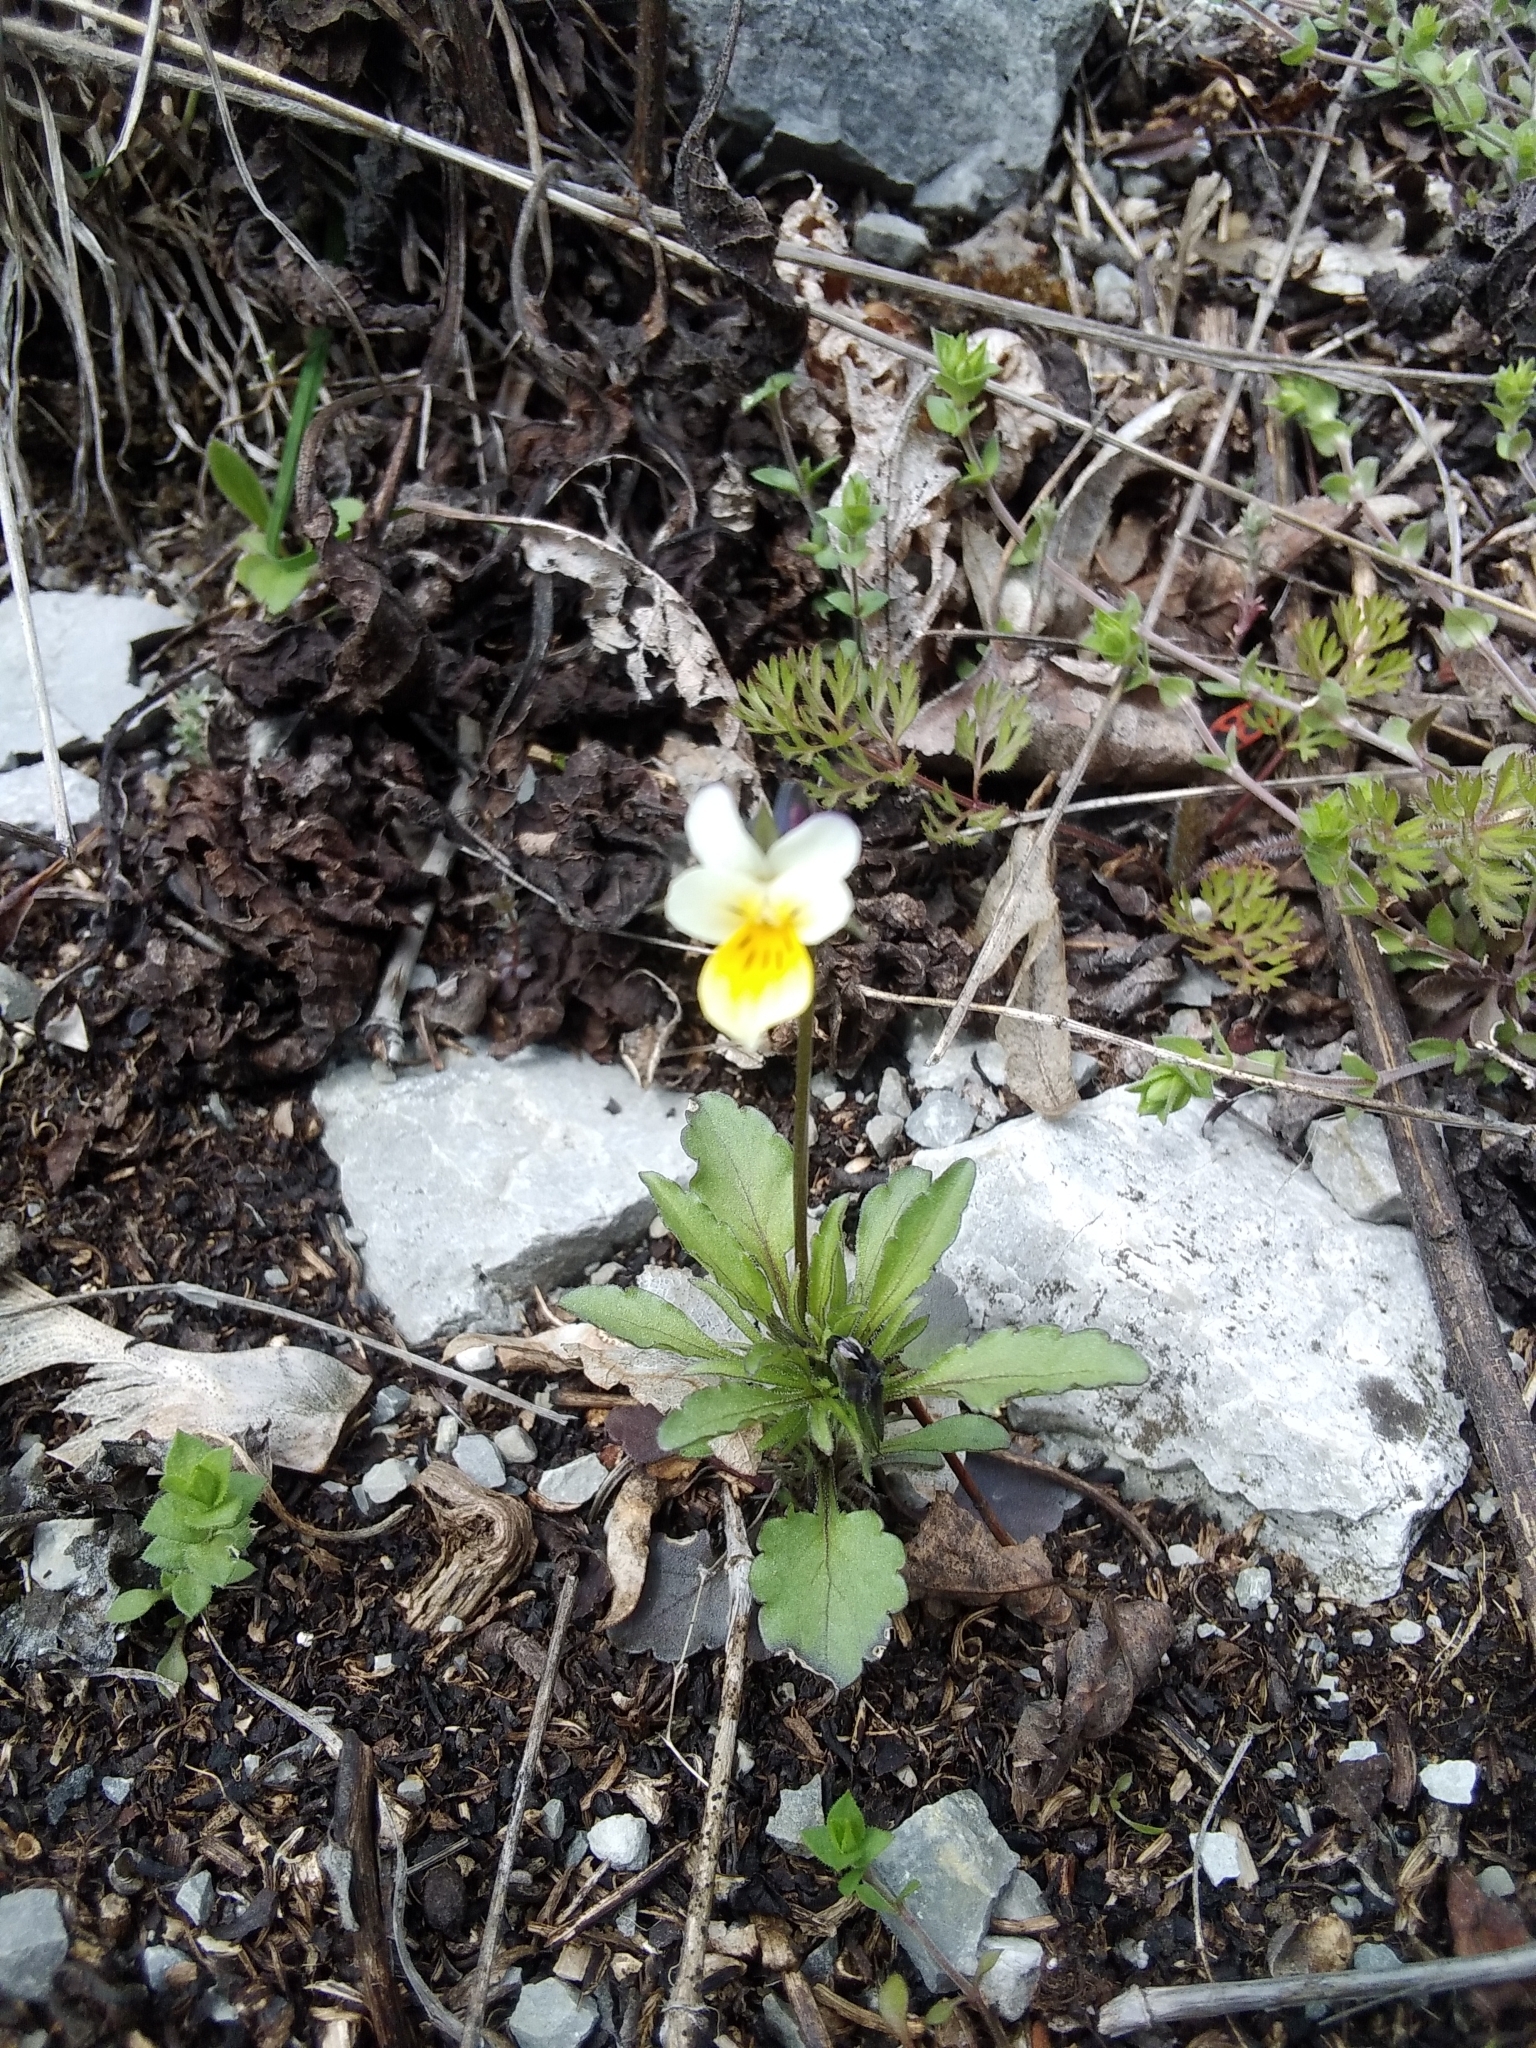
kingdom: Plantae
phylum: Tracheophyta
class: Magnoliopsida
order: Malpighiales
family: Violaceae
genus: Viola
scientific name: Viola arvensis
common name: Field pansy
